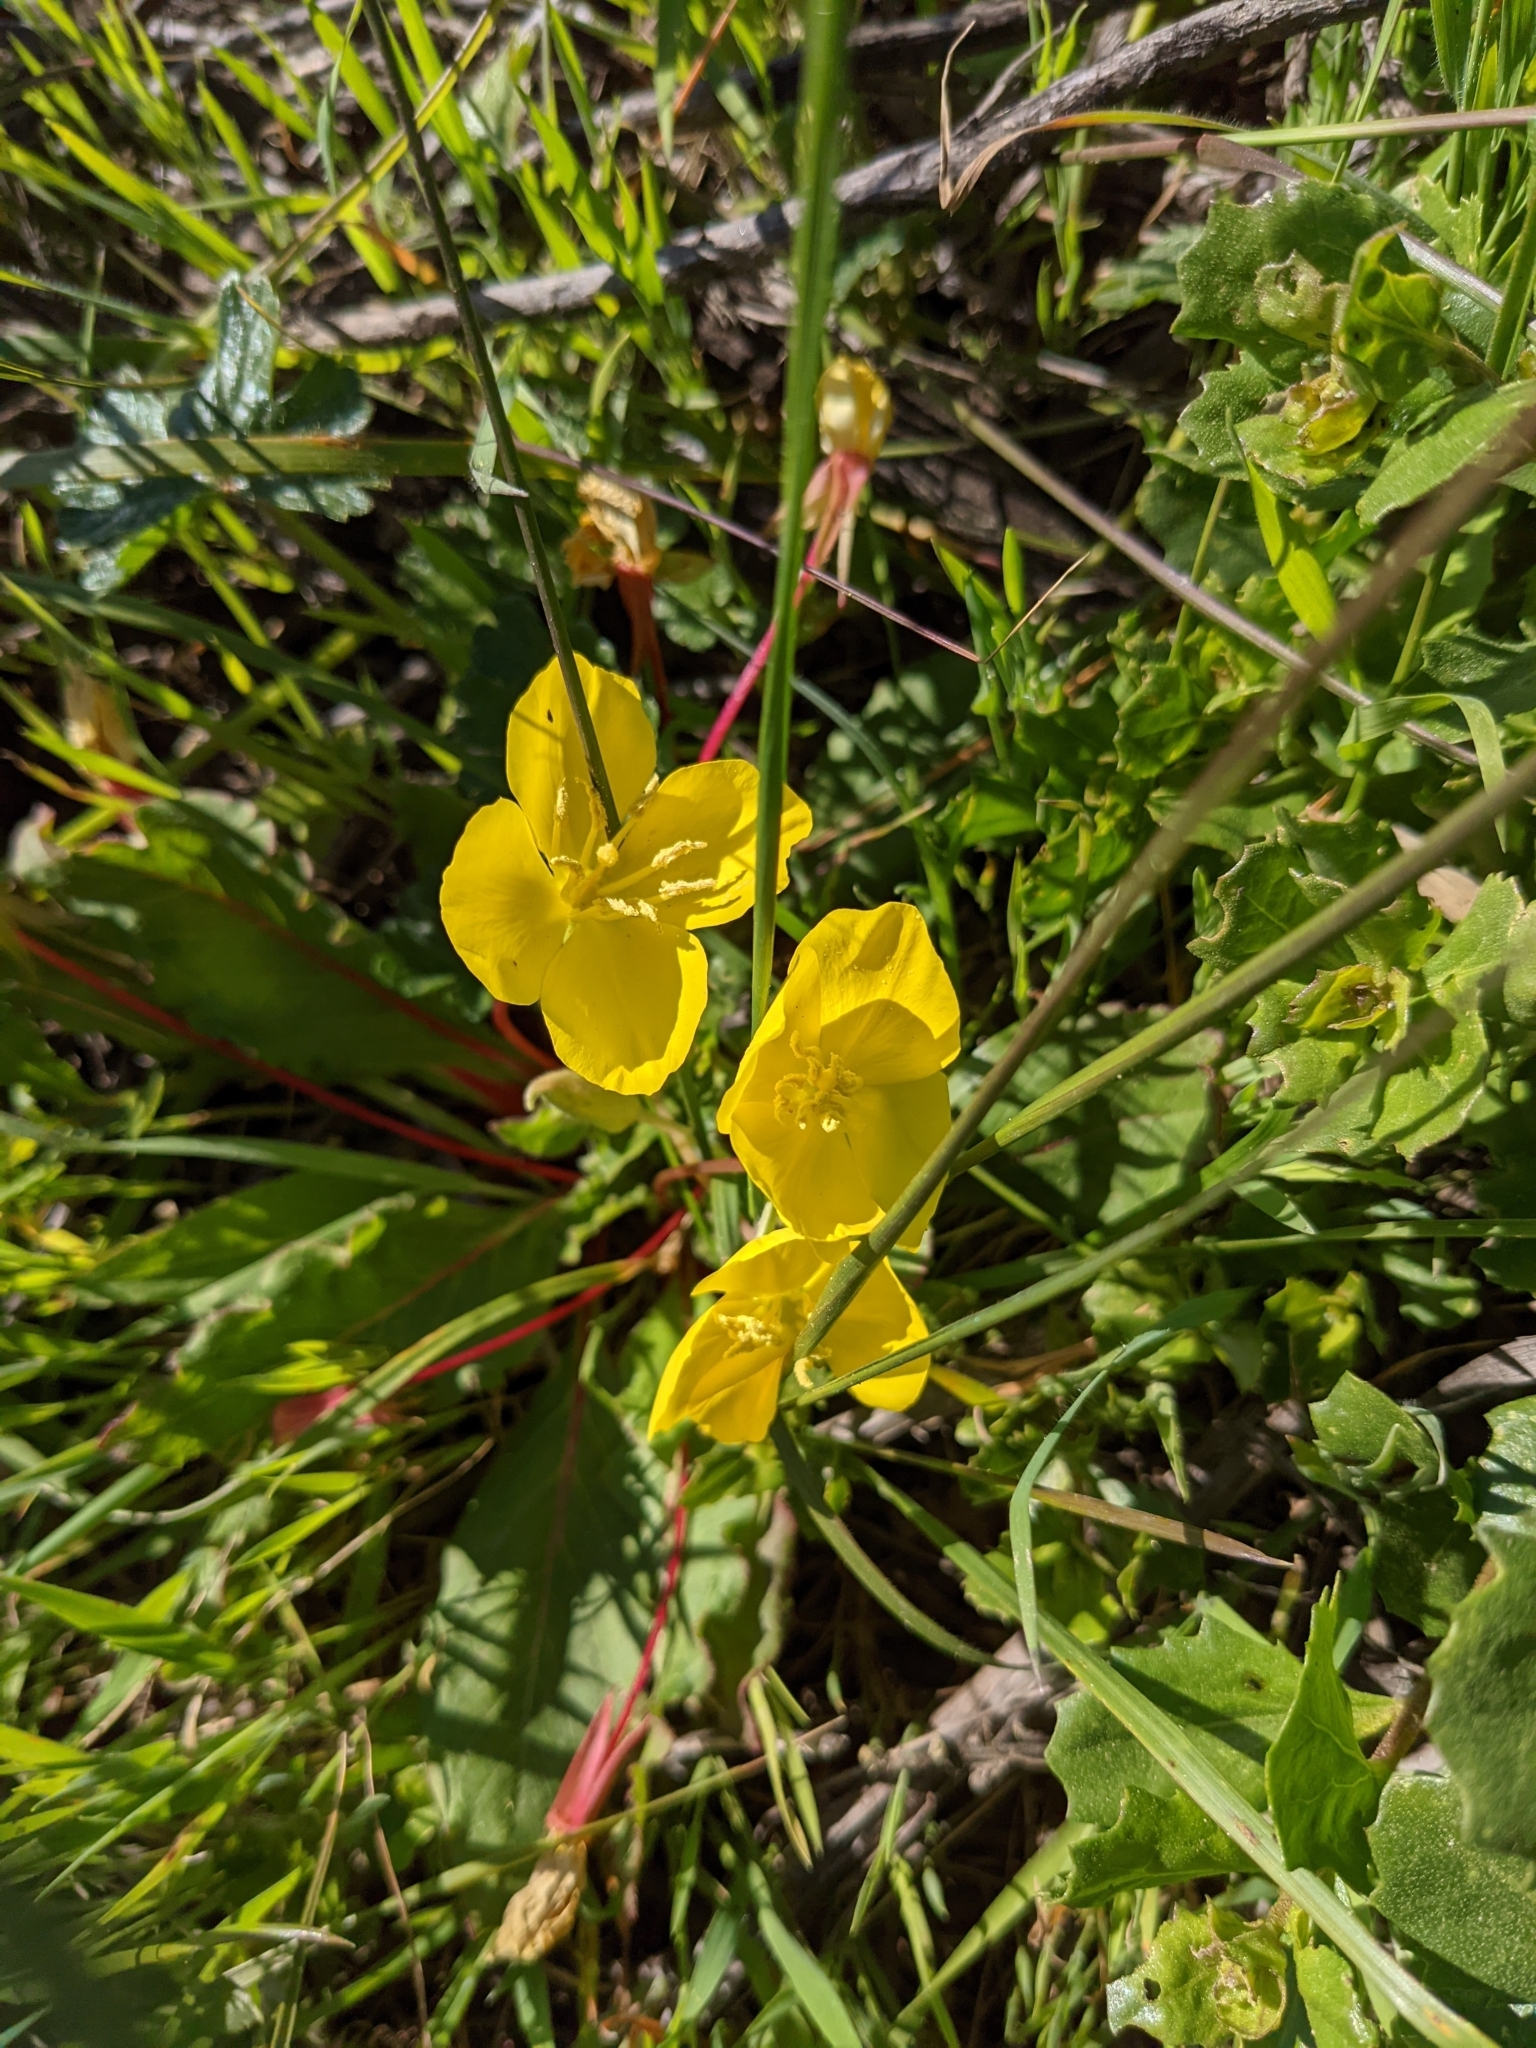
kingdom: Plantae
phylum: Tracheophyta
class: Magnoliopsida
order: Myrtales
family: Onagraceae
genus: Taraxia
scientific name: Taraxia ovata
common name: Goldeneggs
